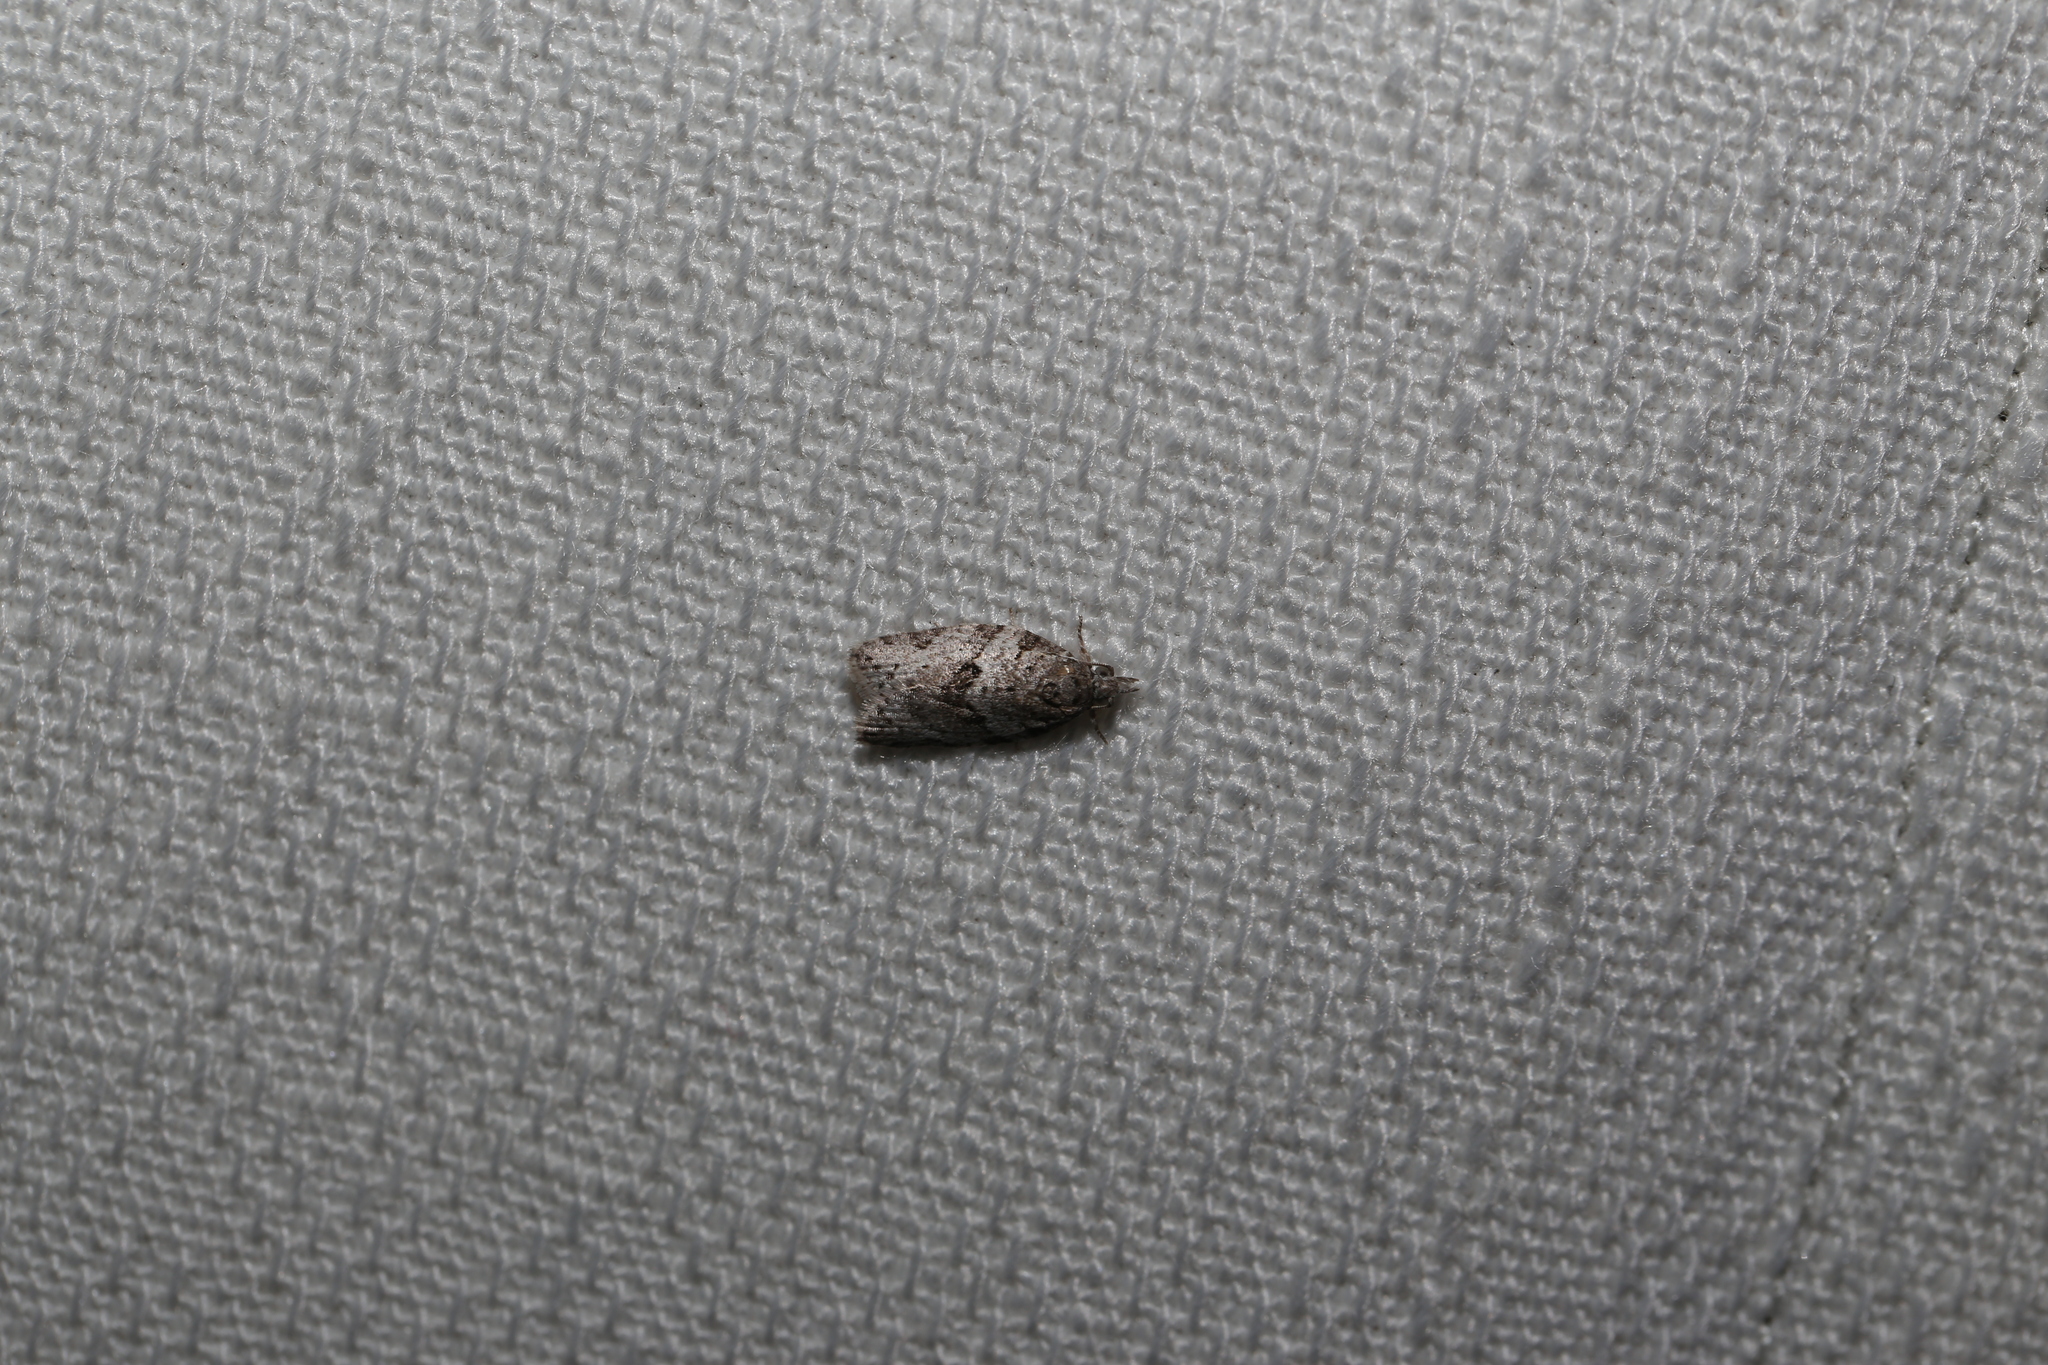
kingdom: Animalia
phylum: Arthropoda
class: Insecta
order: Lepidoptera
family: Tortricidae
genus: Isotenes
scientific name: Isotenes miserana
